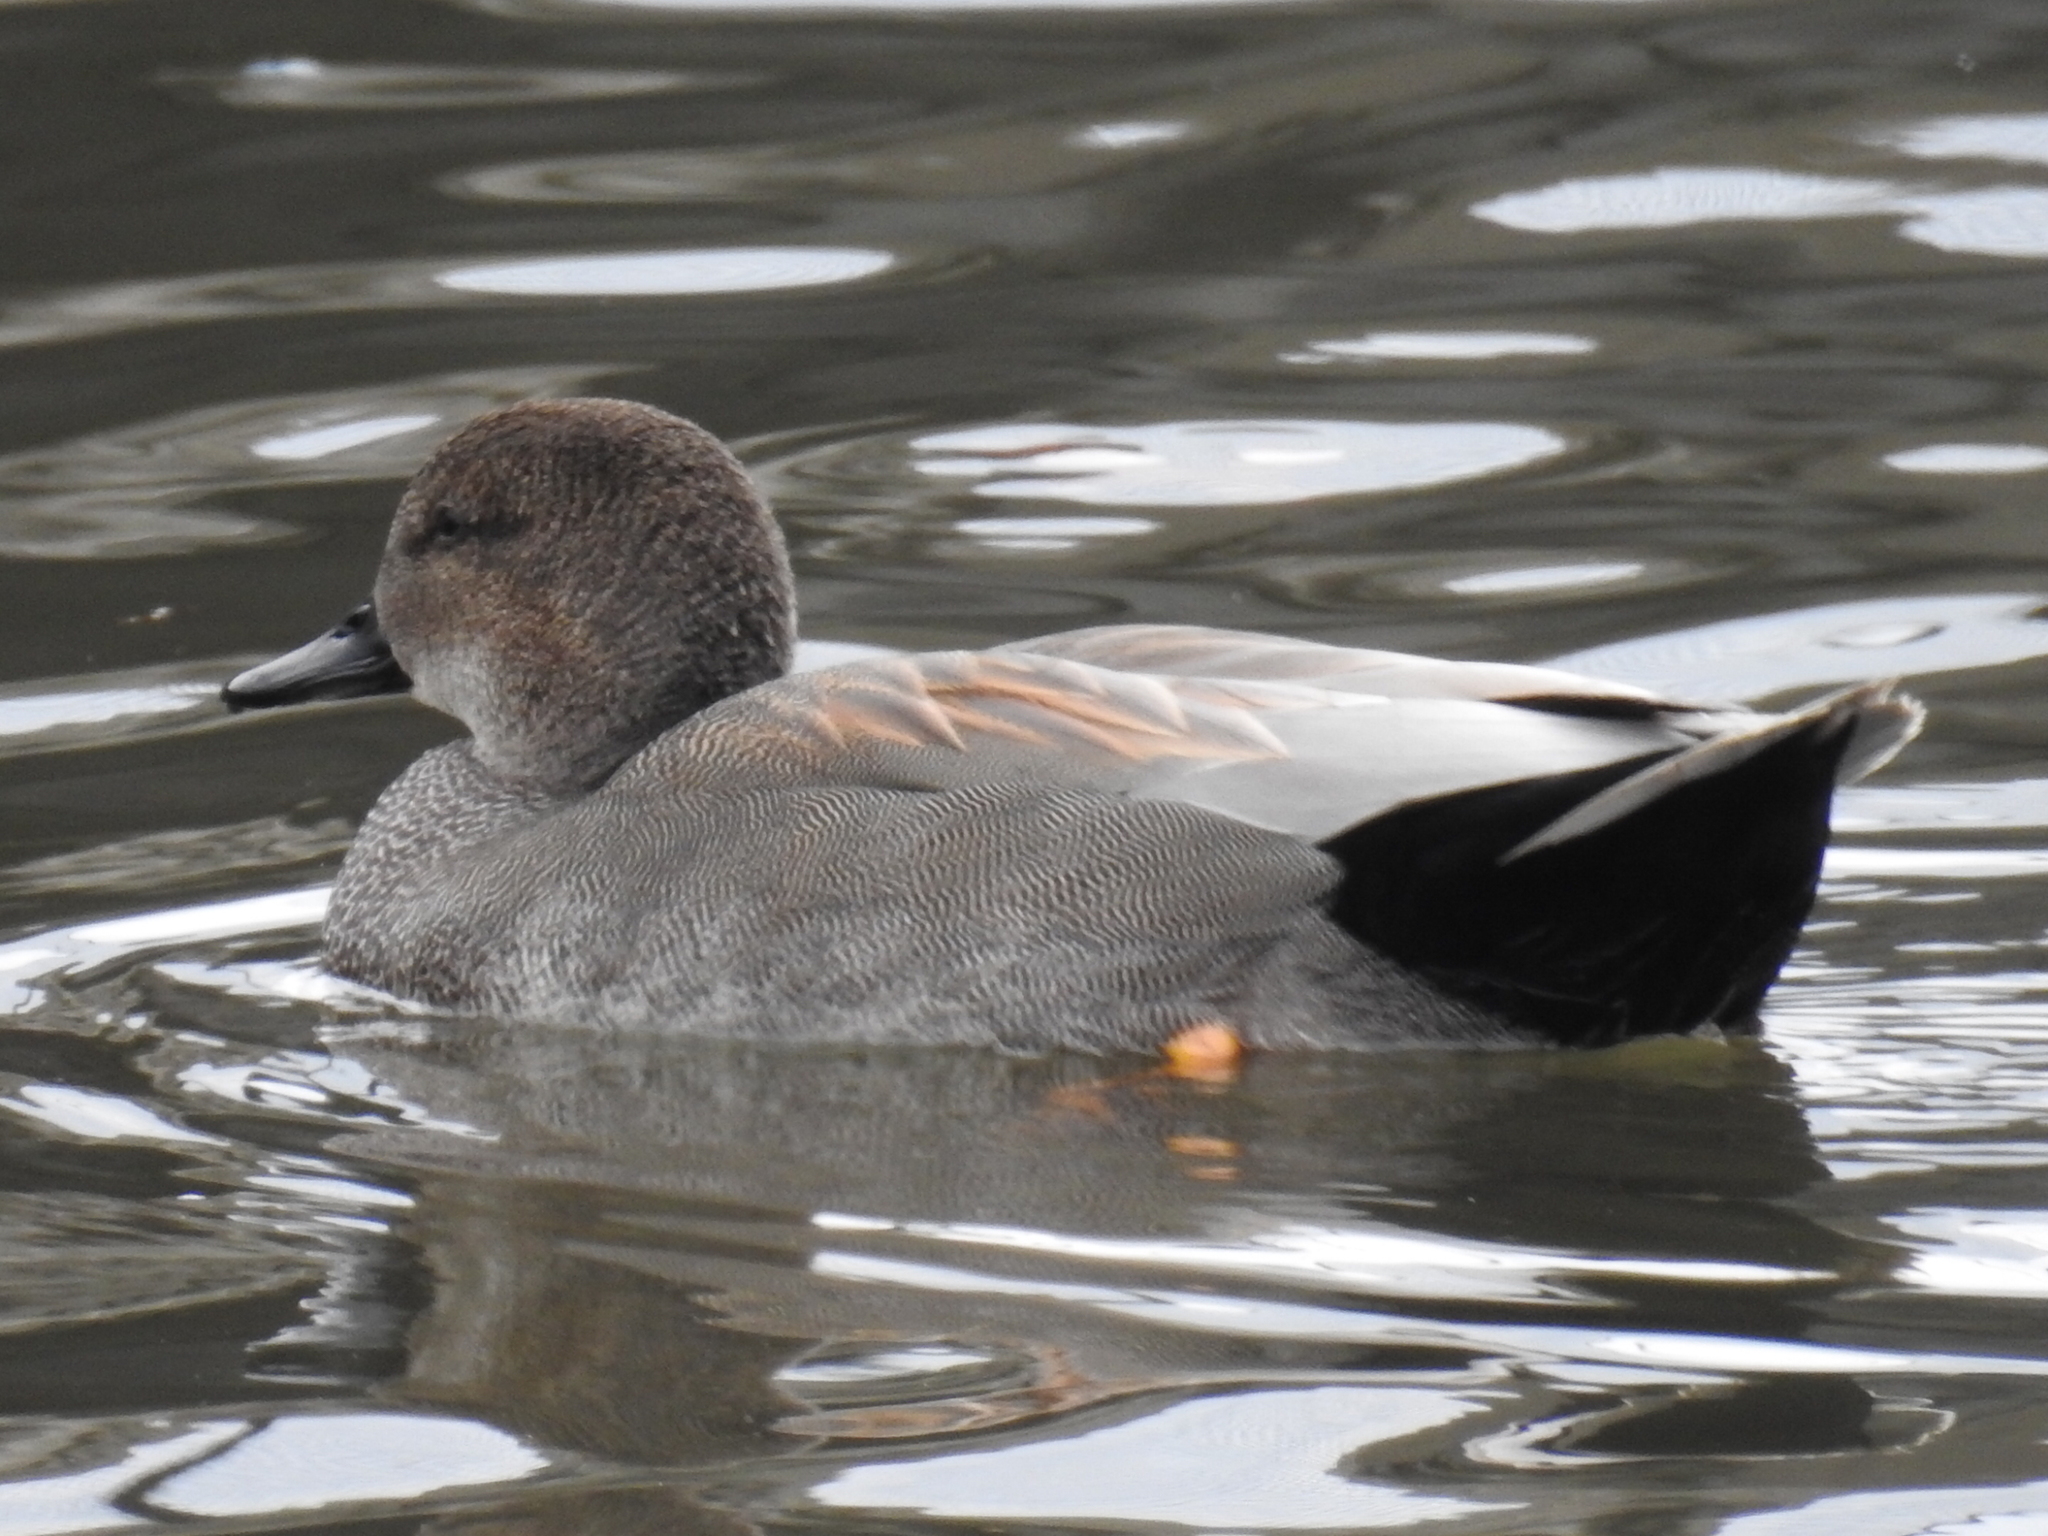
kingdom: Animalia
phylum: Chordata
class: Aves
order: Anseriformes
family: Anatidae
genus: Mareca
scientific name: Mareca strepera
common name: Gadwall
